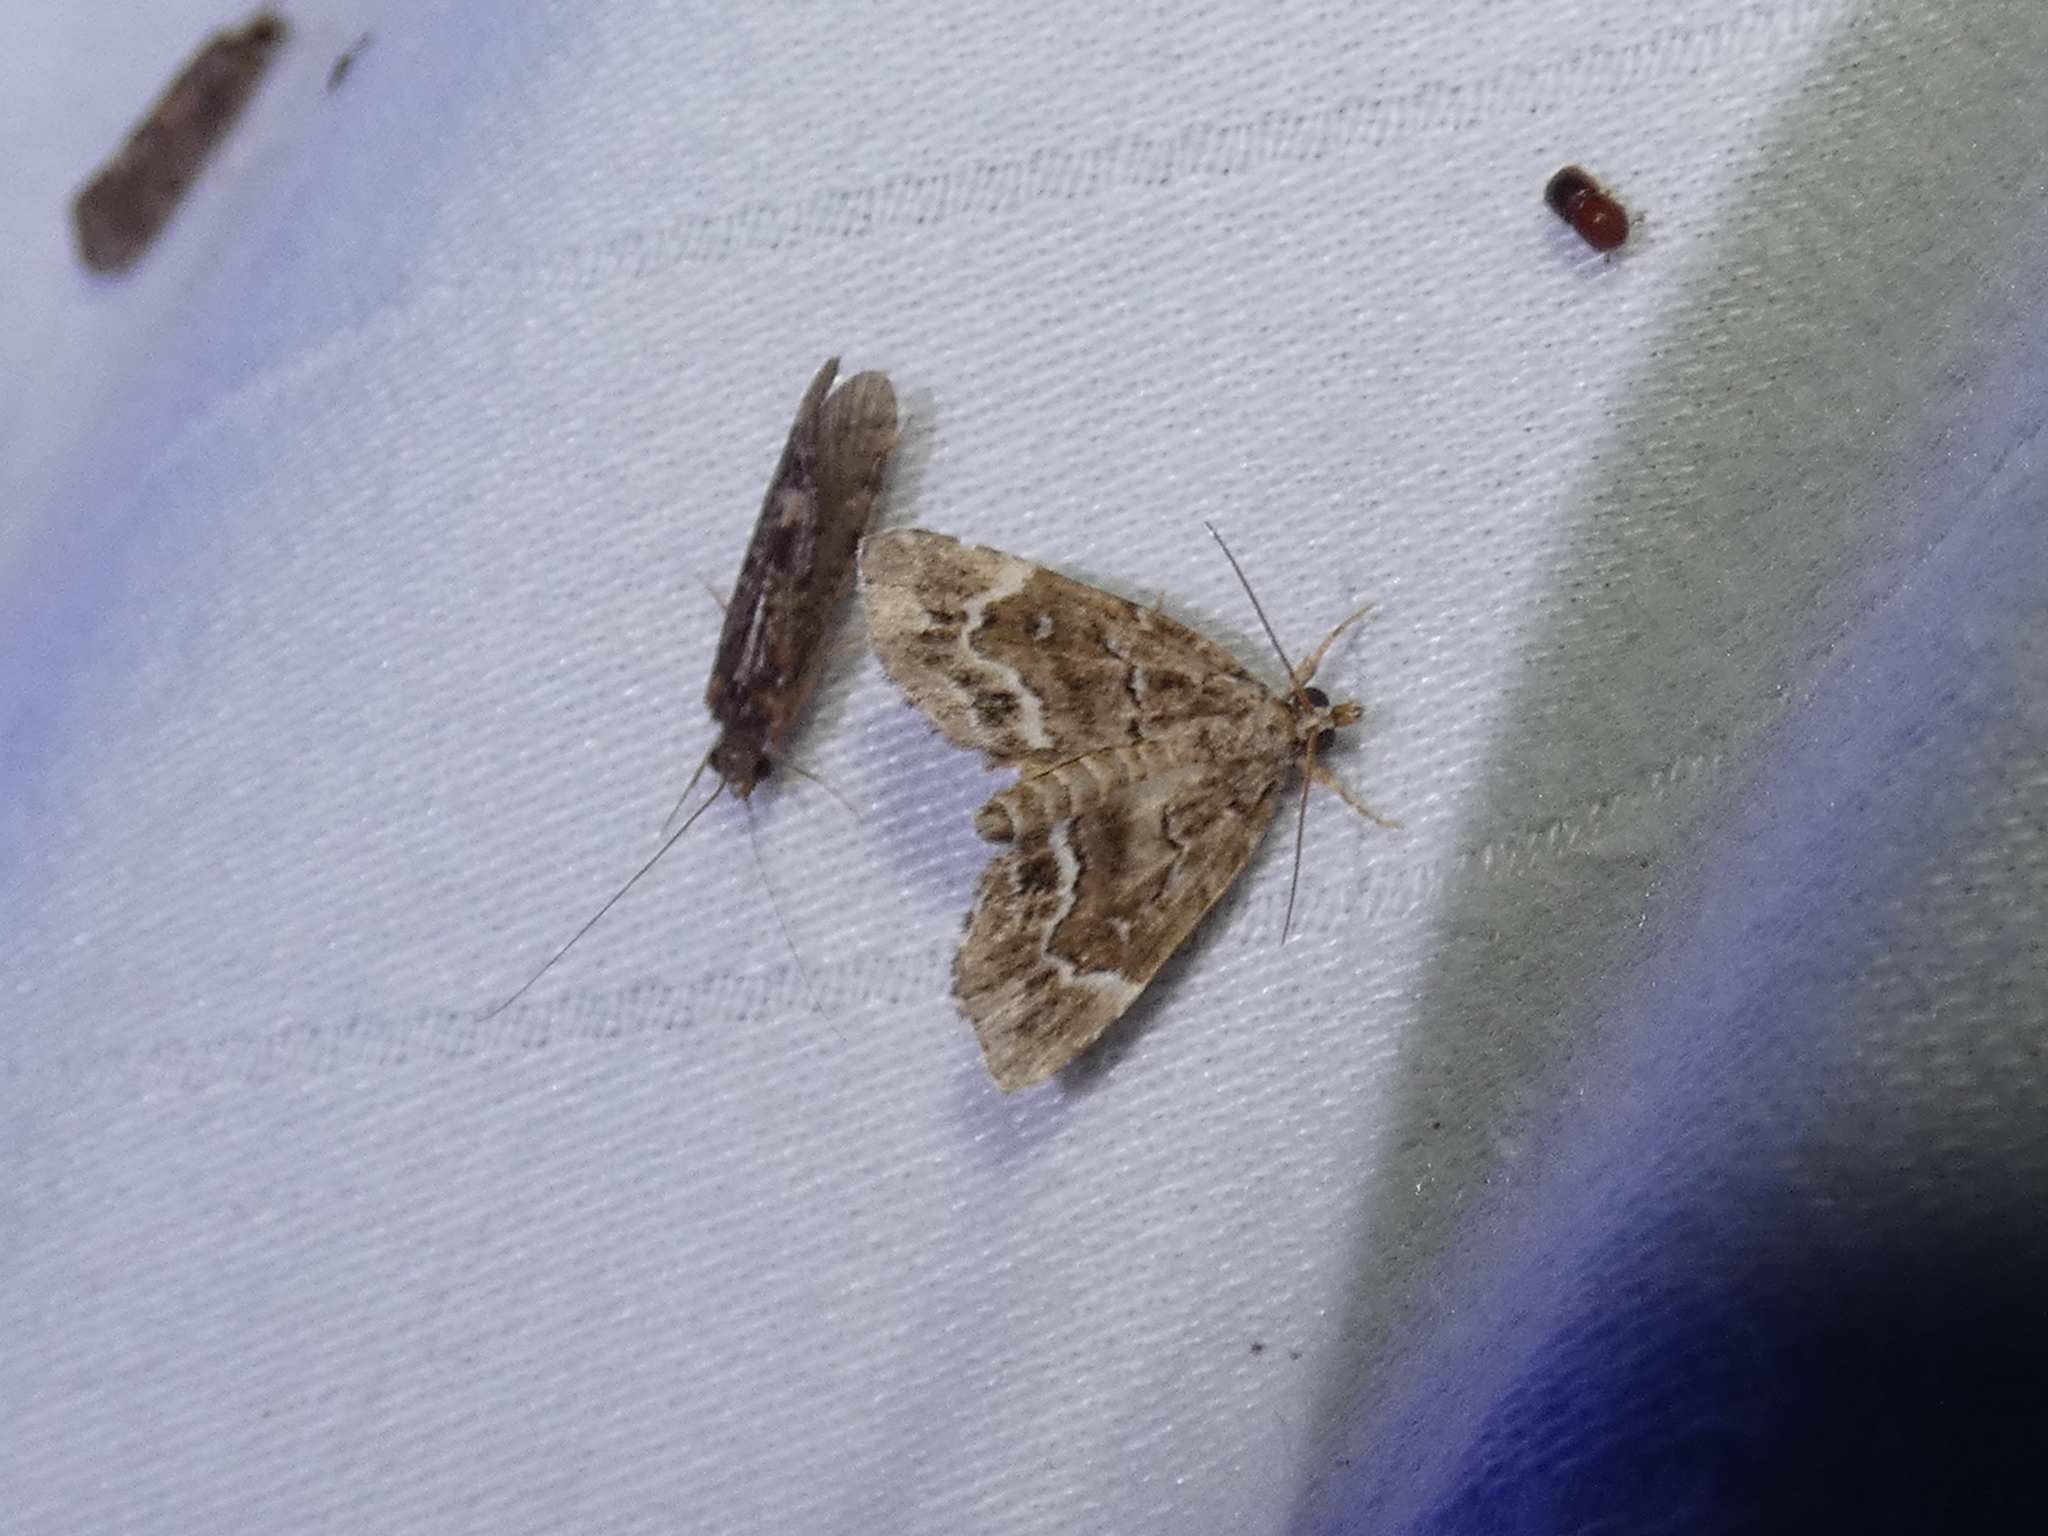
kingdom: Animalia
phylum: Arthropoda
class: Insecta
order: Lepidoptera
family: Erebidae
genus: Cutina
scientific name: Cutina arcuata
